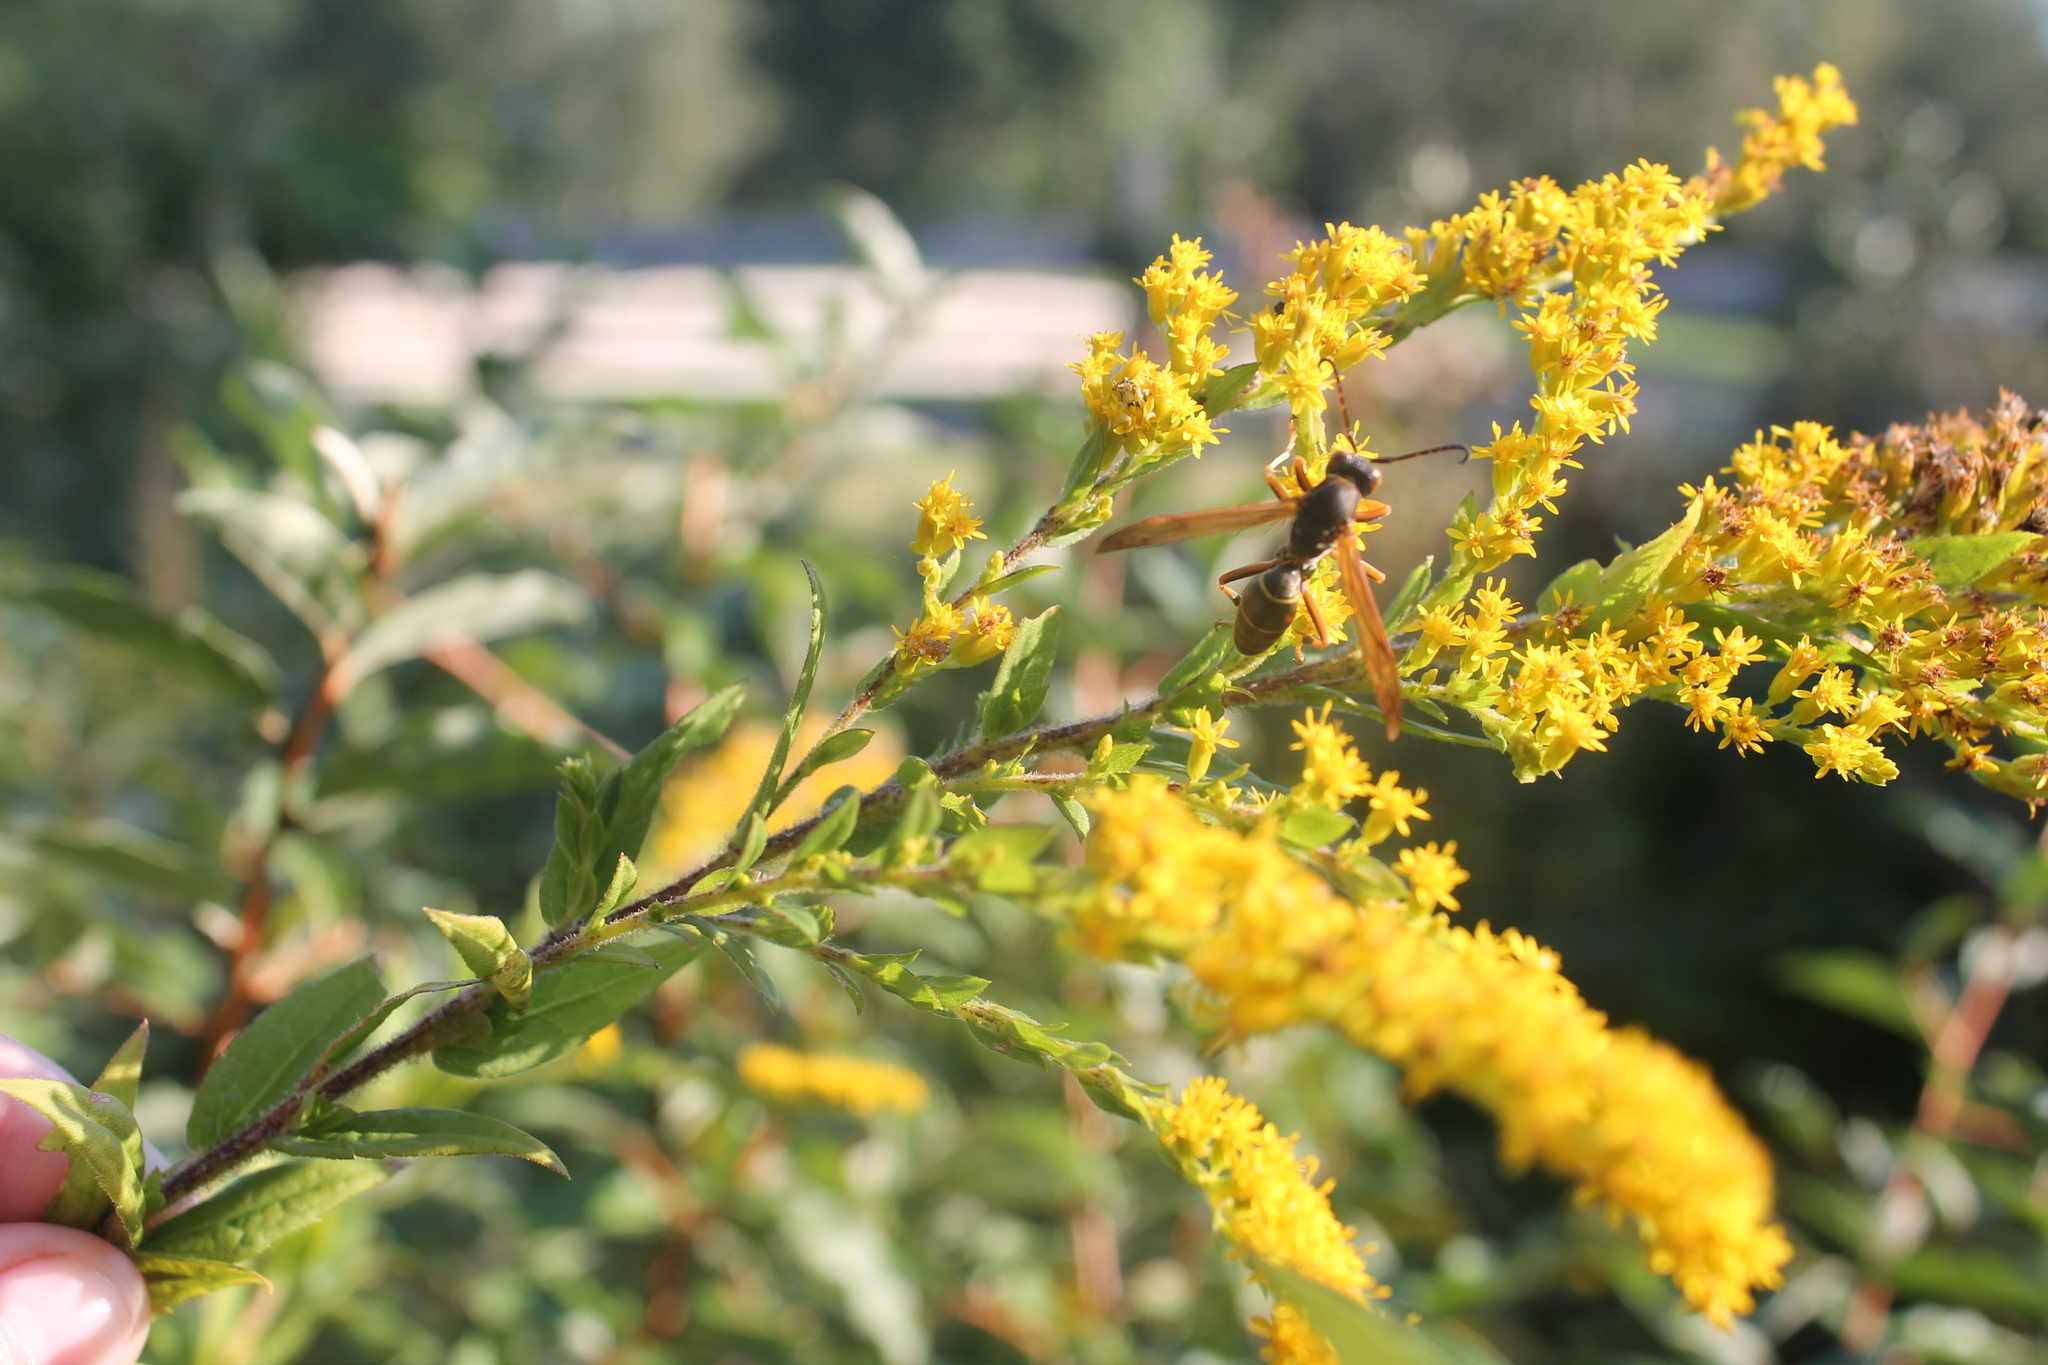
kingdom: Animalia
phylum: Arthropoda
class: Insecta
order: Hymenoptera
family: Eumenidae
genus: Polistes
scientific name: Polistes fuscatus
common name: Dark paper wasp
